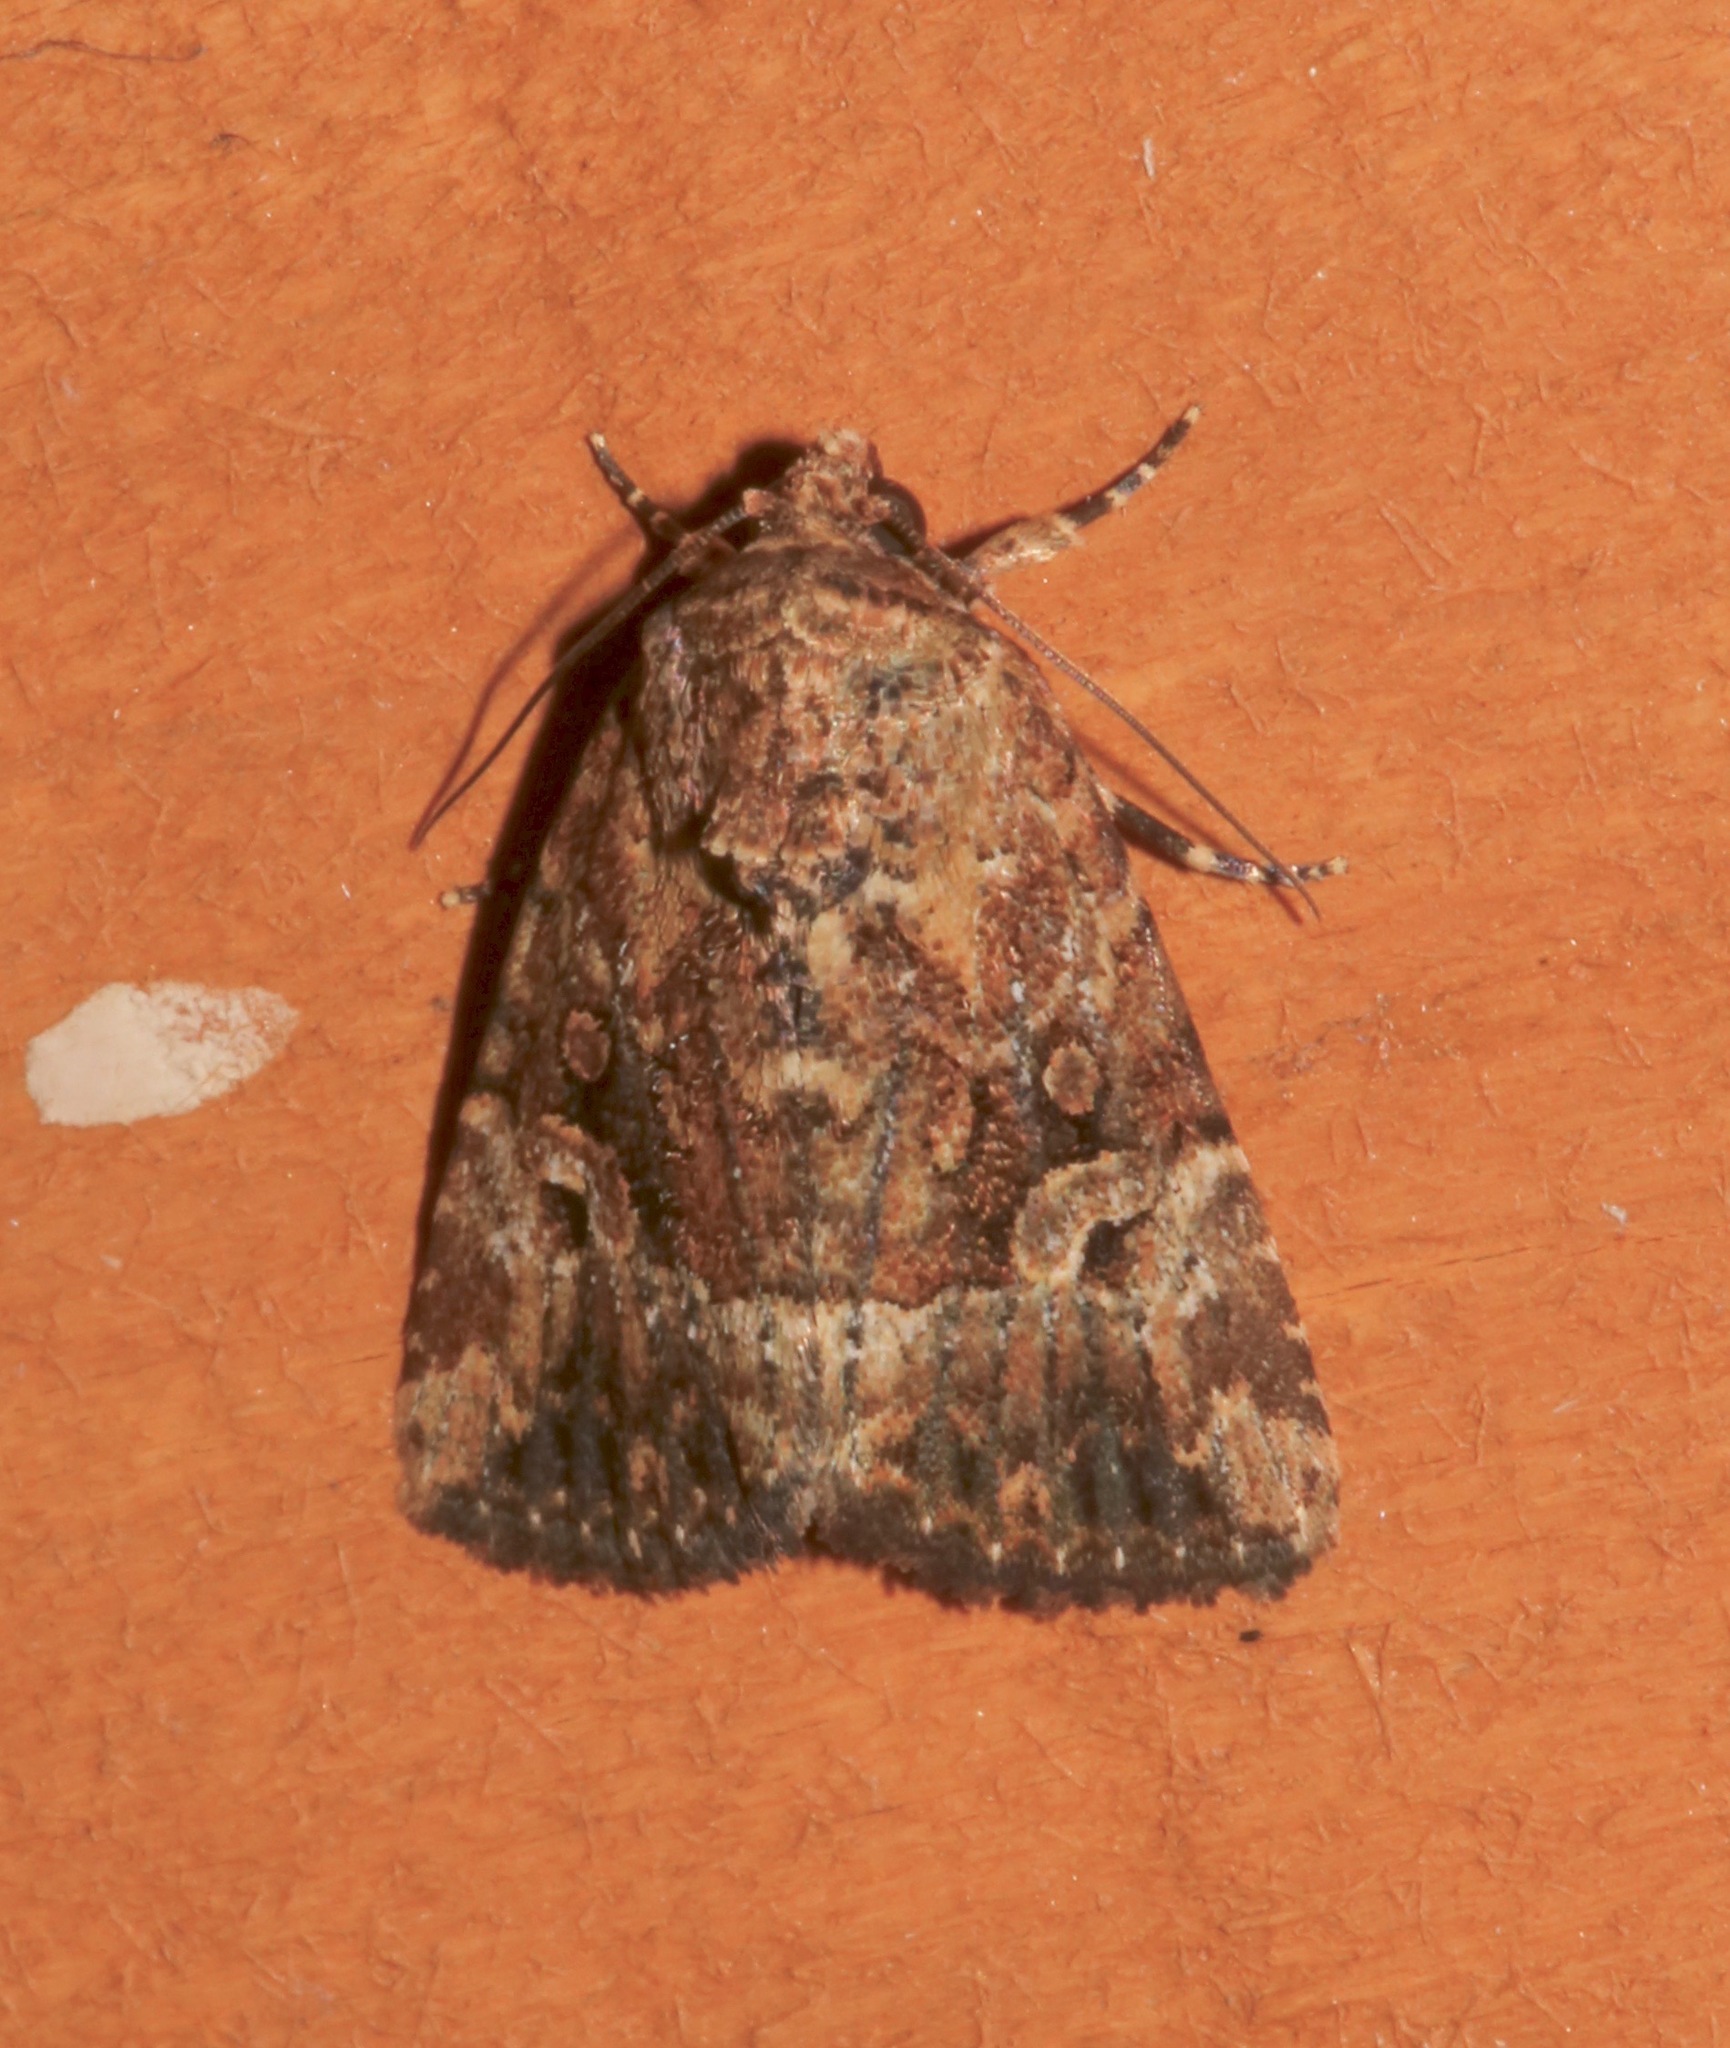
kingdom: Animalia
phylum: Arthropoda
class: Insecta
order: Lepidoptera
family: Noctuidae
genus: Elaphria
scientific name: Elaphria exesa
